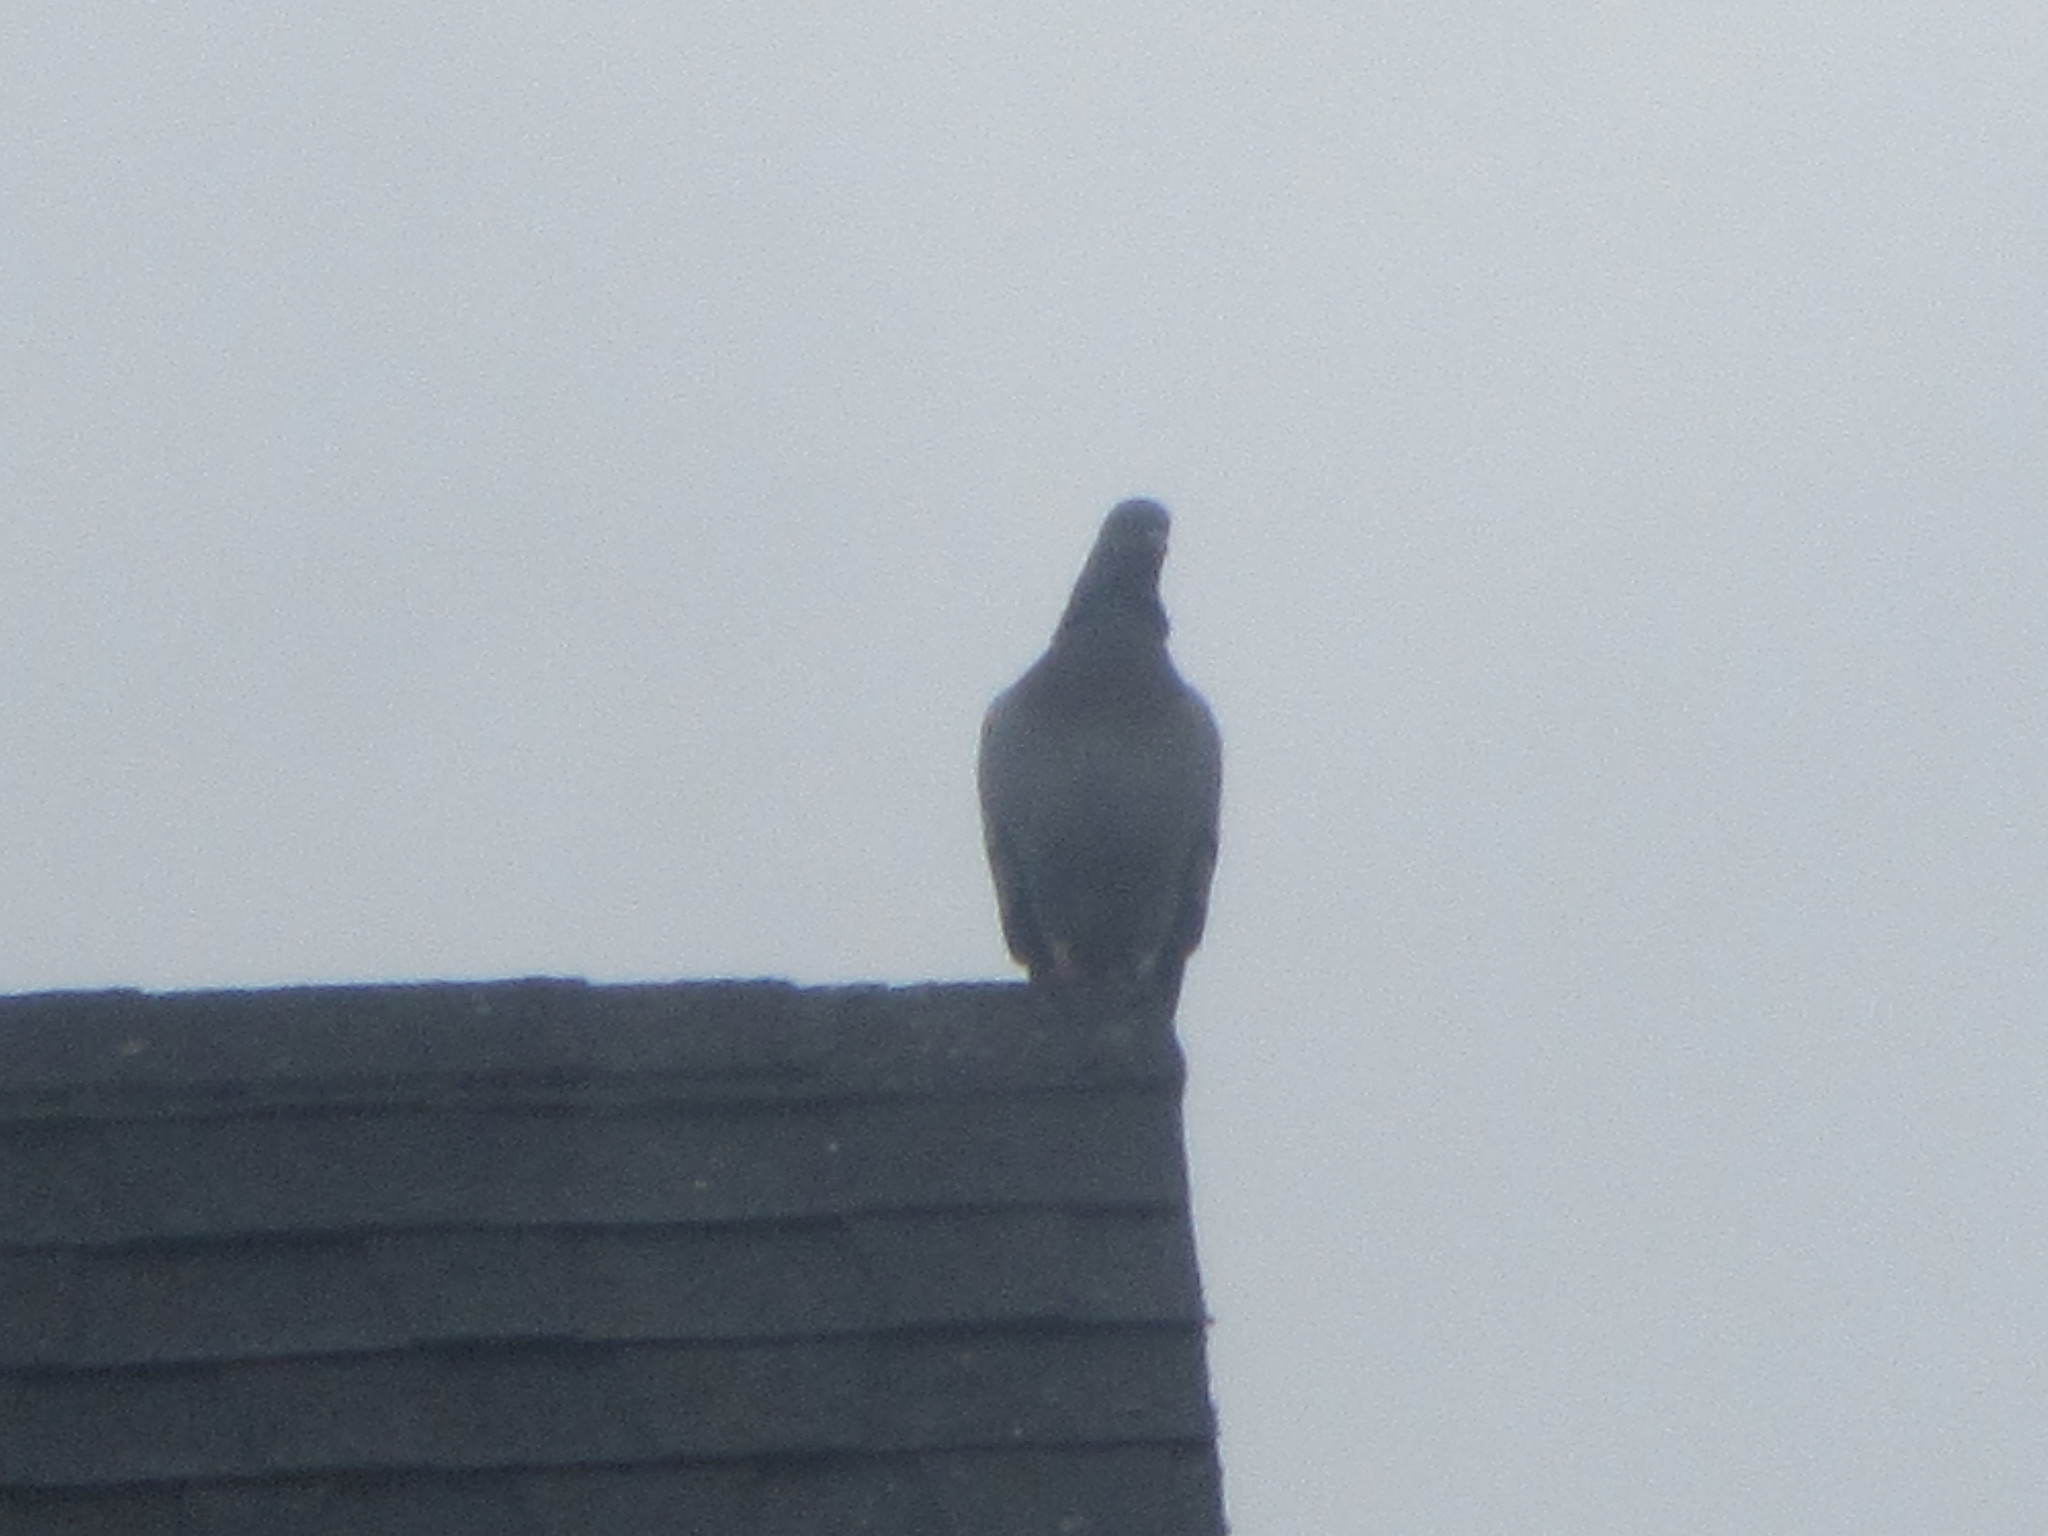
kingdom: Animalia
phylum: Chordata
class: Aves
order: Columbiformes
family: Columbidae
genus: Columba
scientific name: Columba livia
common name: Rock pigeon
